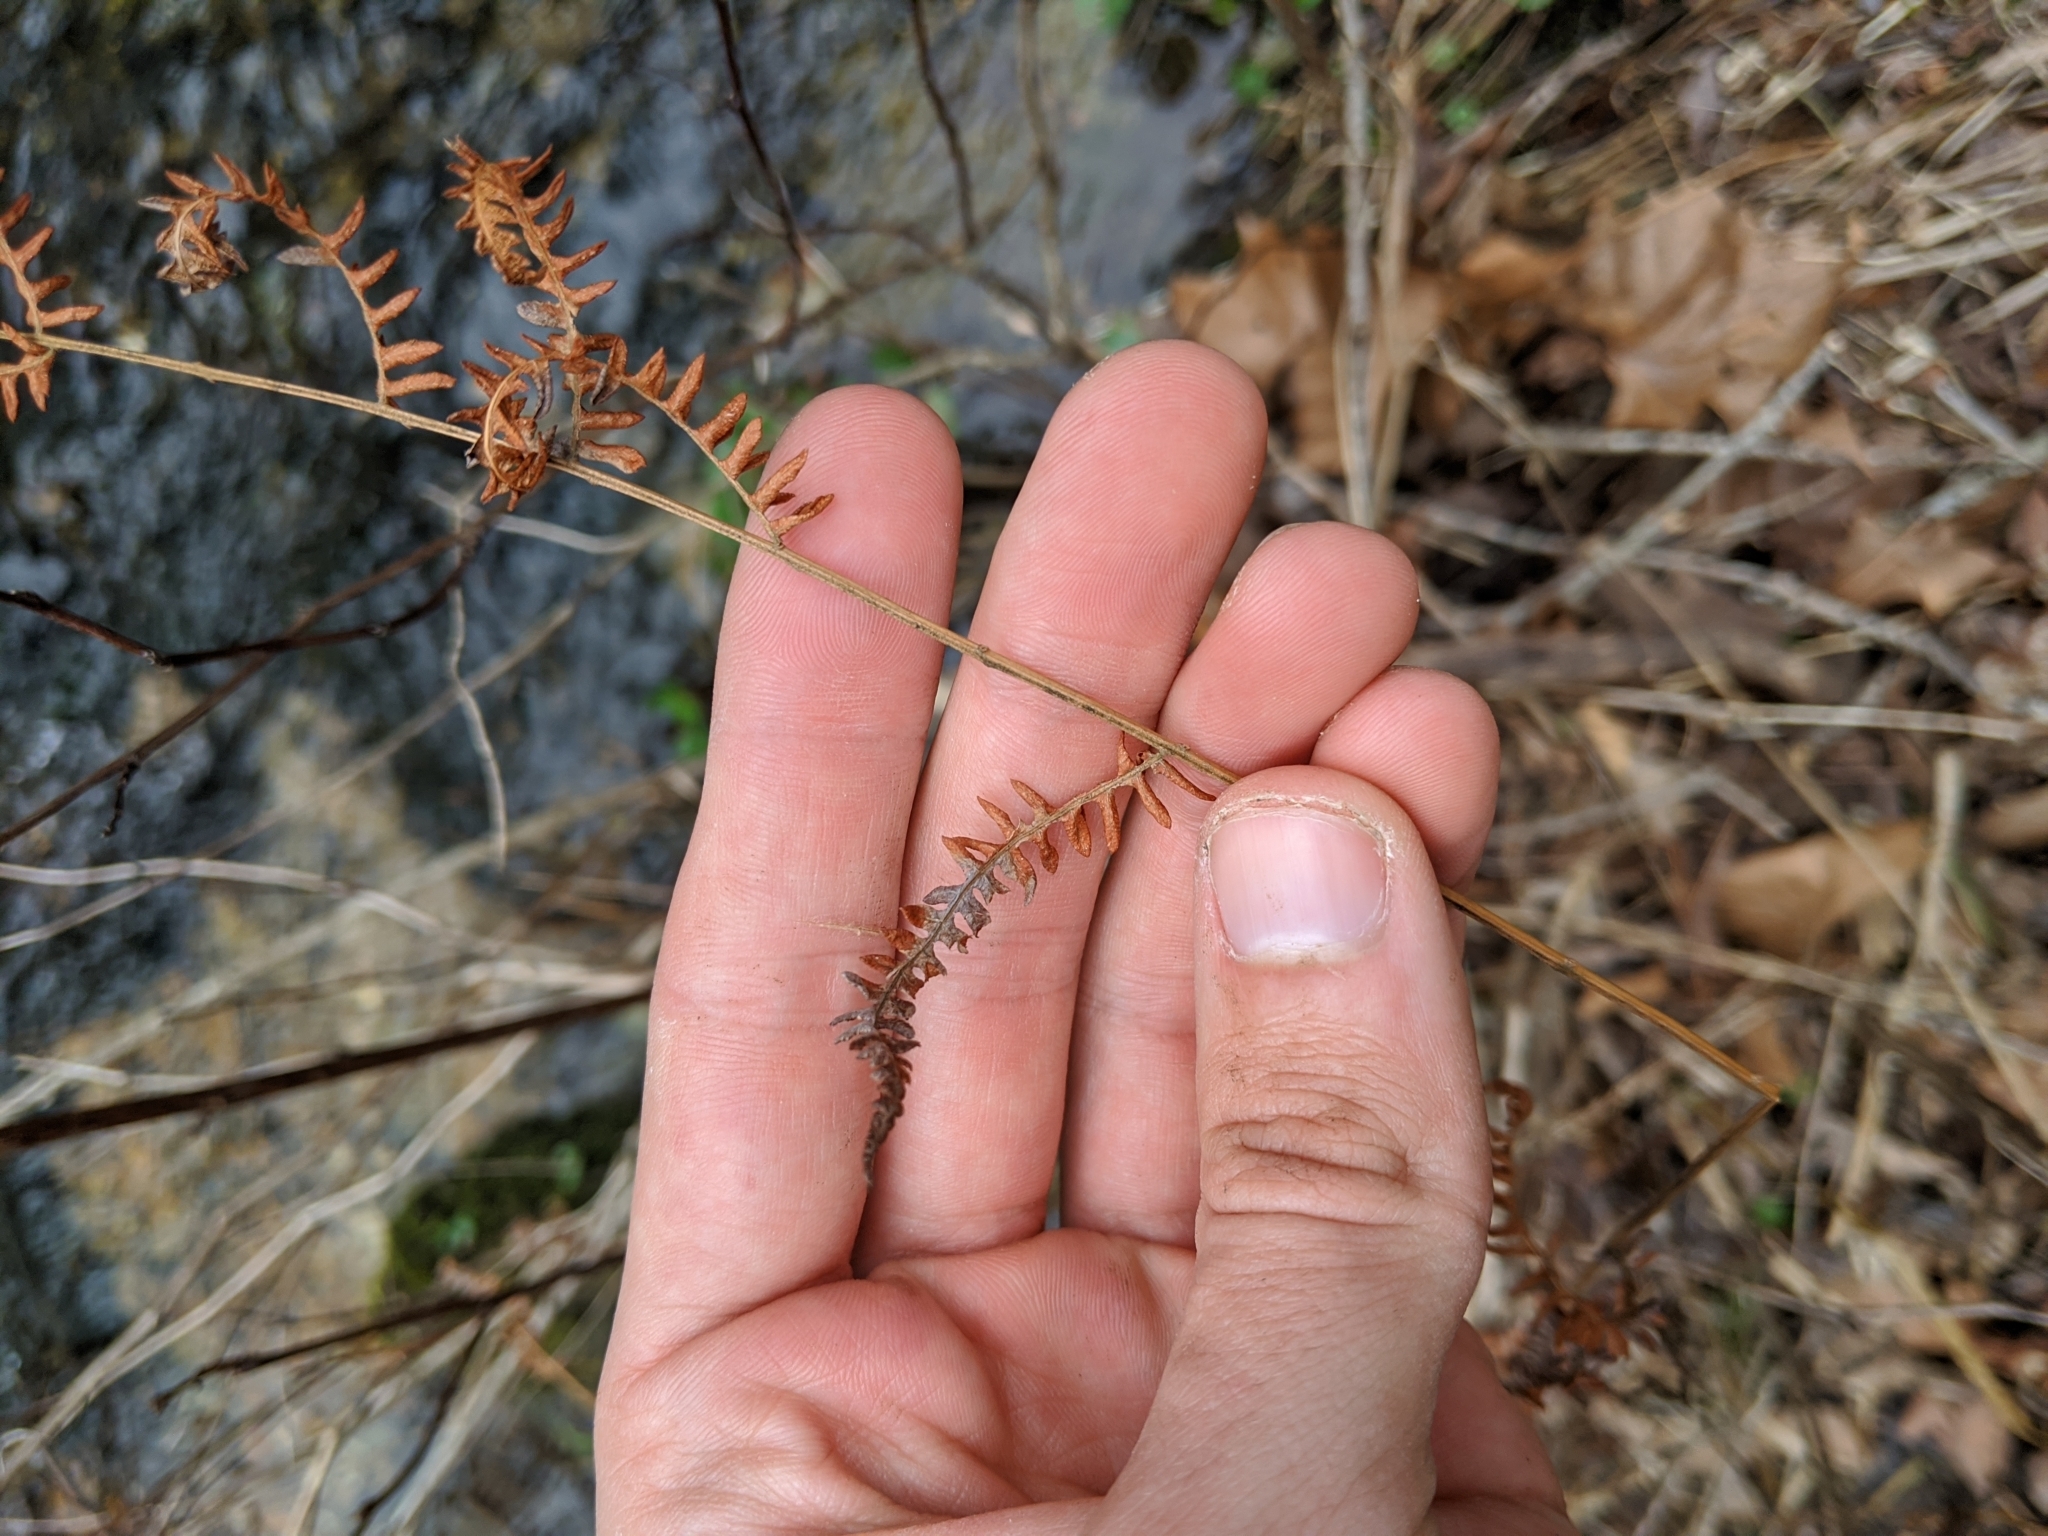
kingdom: Plantae
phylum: Tracheophyta
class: Polypodiopsida
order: Polypodiales
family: Thelypteridaceae
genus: Thelypteris
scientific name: Thelypteris palustris
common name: Marsh fern
